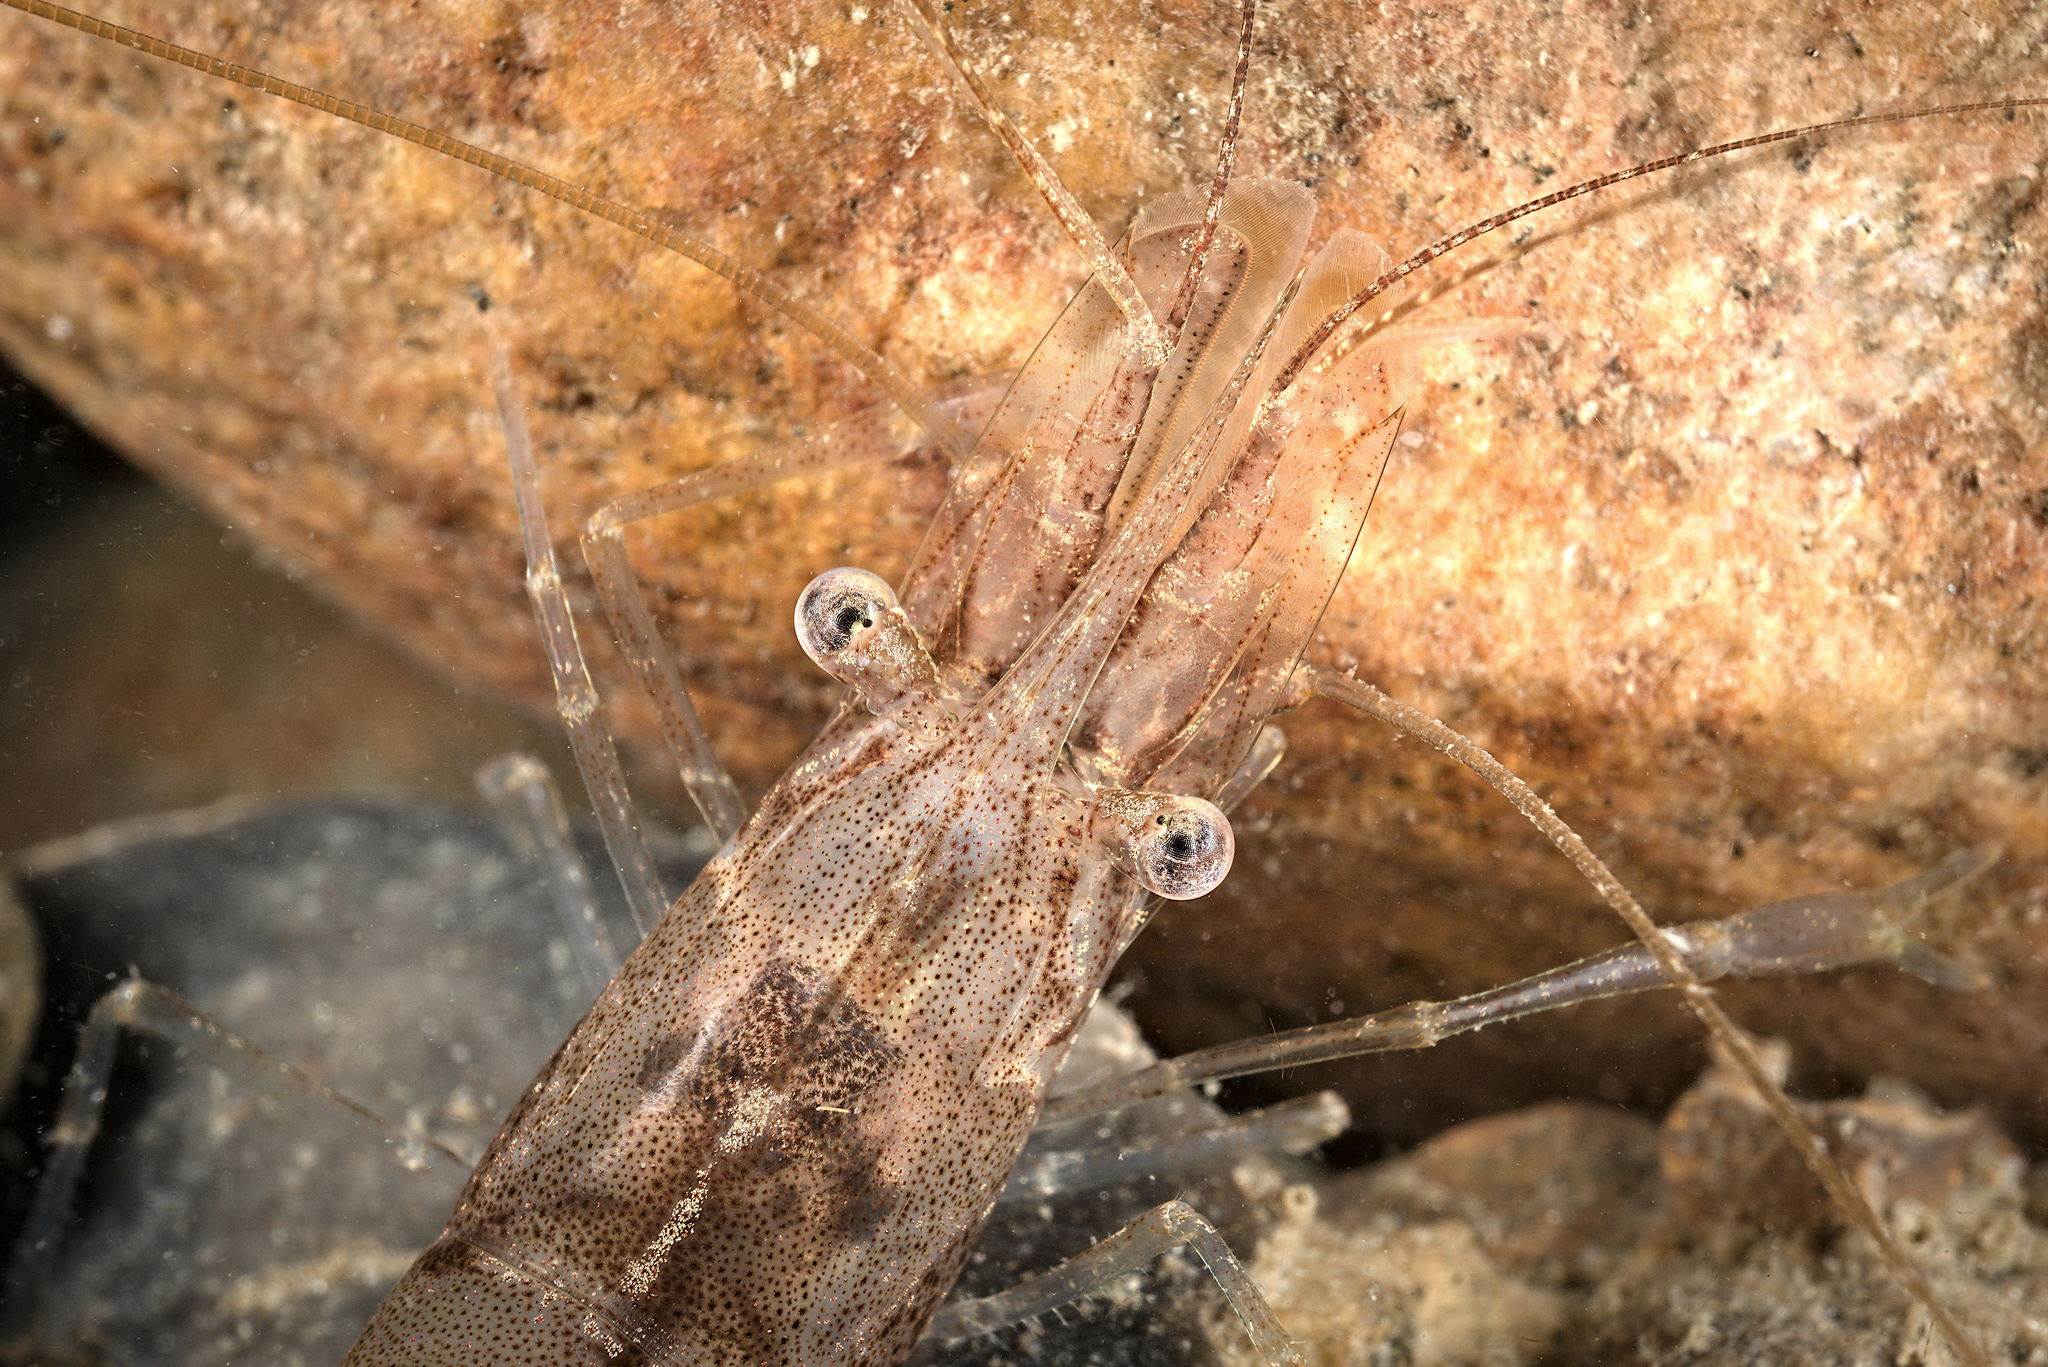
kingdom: Animalia
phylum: Arthropoda
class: Malacostraca
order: Decapoda
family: Palaemonidae
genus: Palaemon
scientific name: Palaemon adspersus
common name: Baltic prawn
